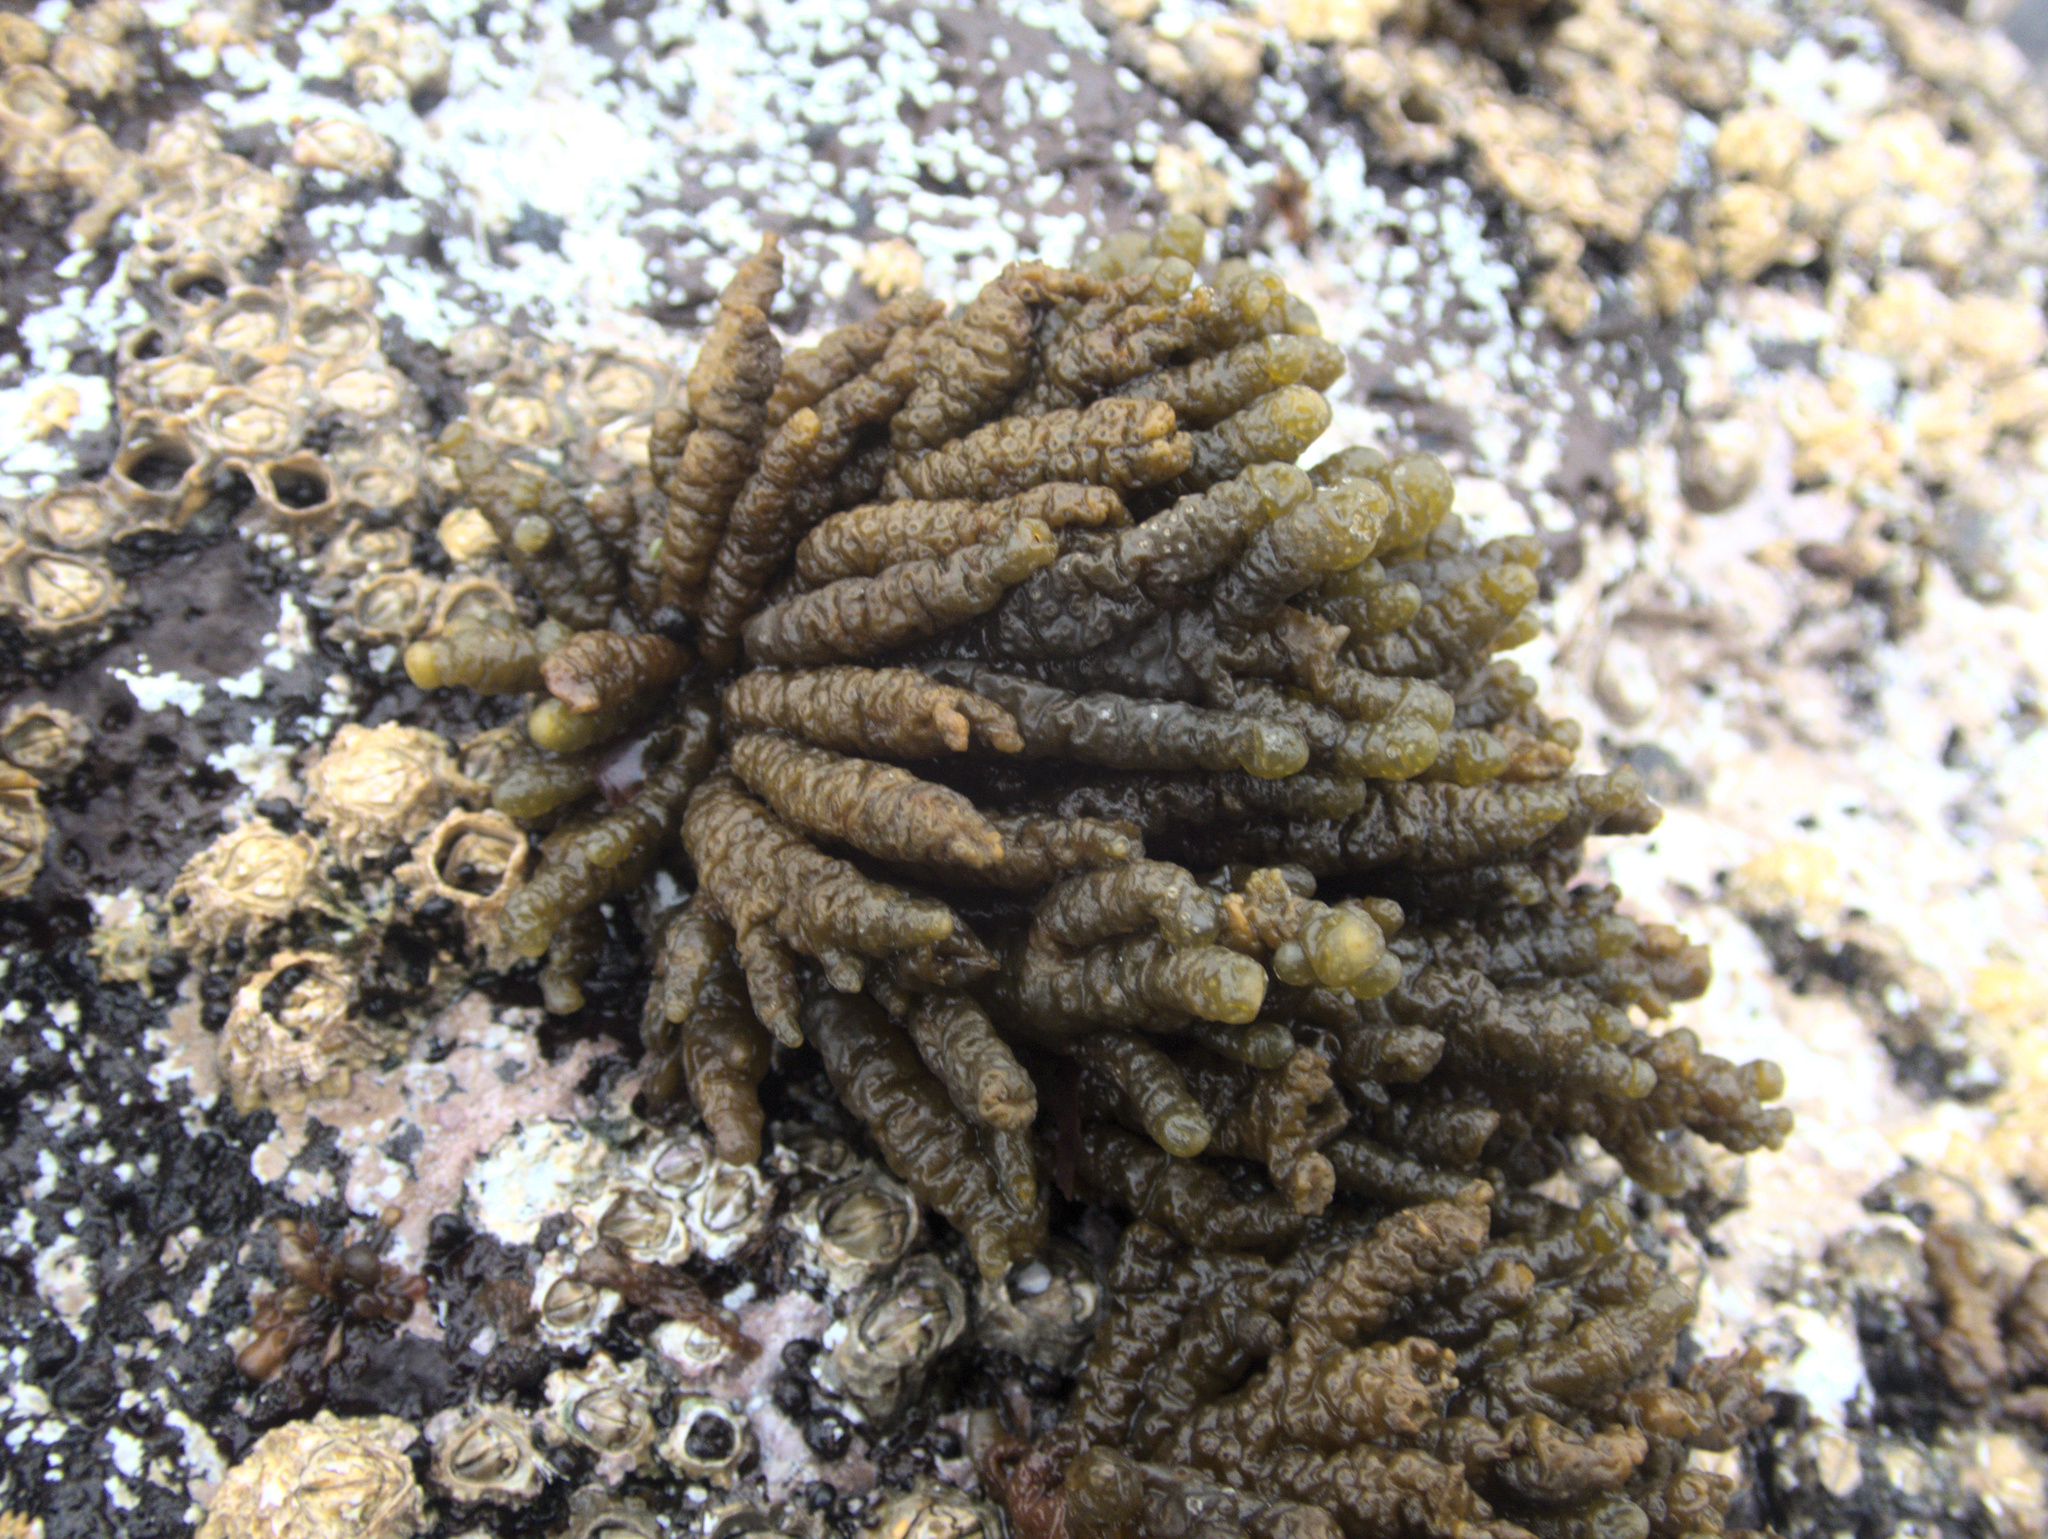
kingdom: Chromista
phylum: Ochrophyta
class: Phaeophyceae
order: Scytothamnales
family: Splachnidiaceae
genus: Splachnidium
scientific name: Splachnidium rugosum
